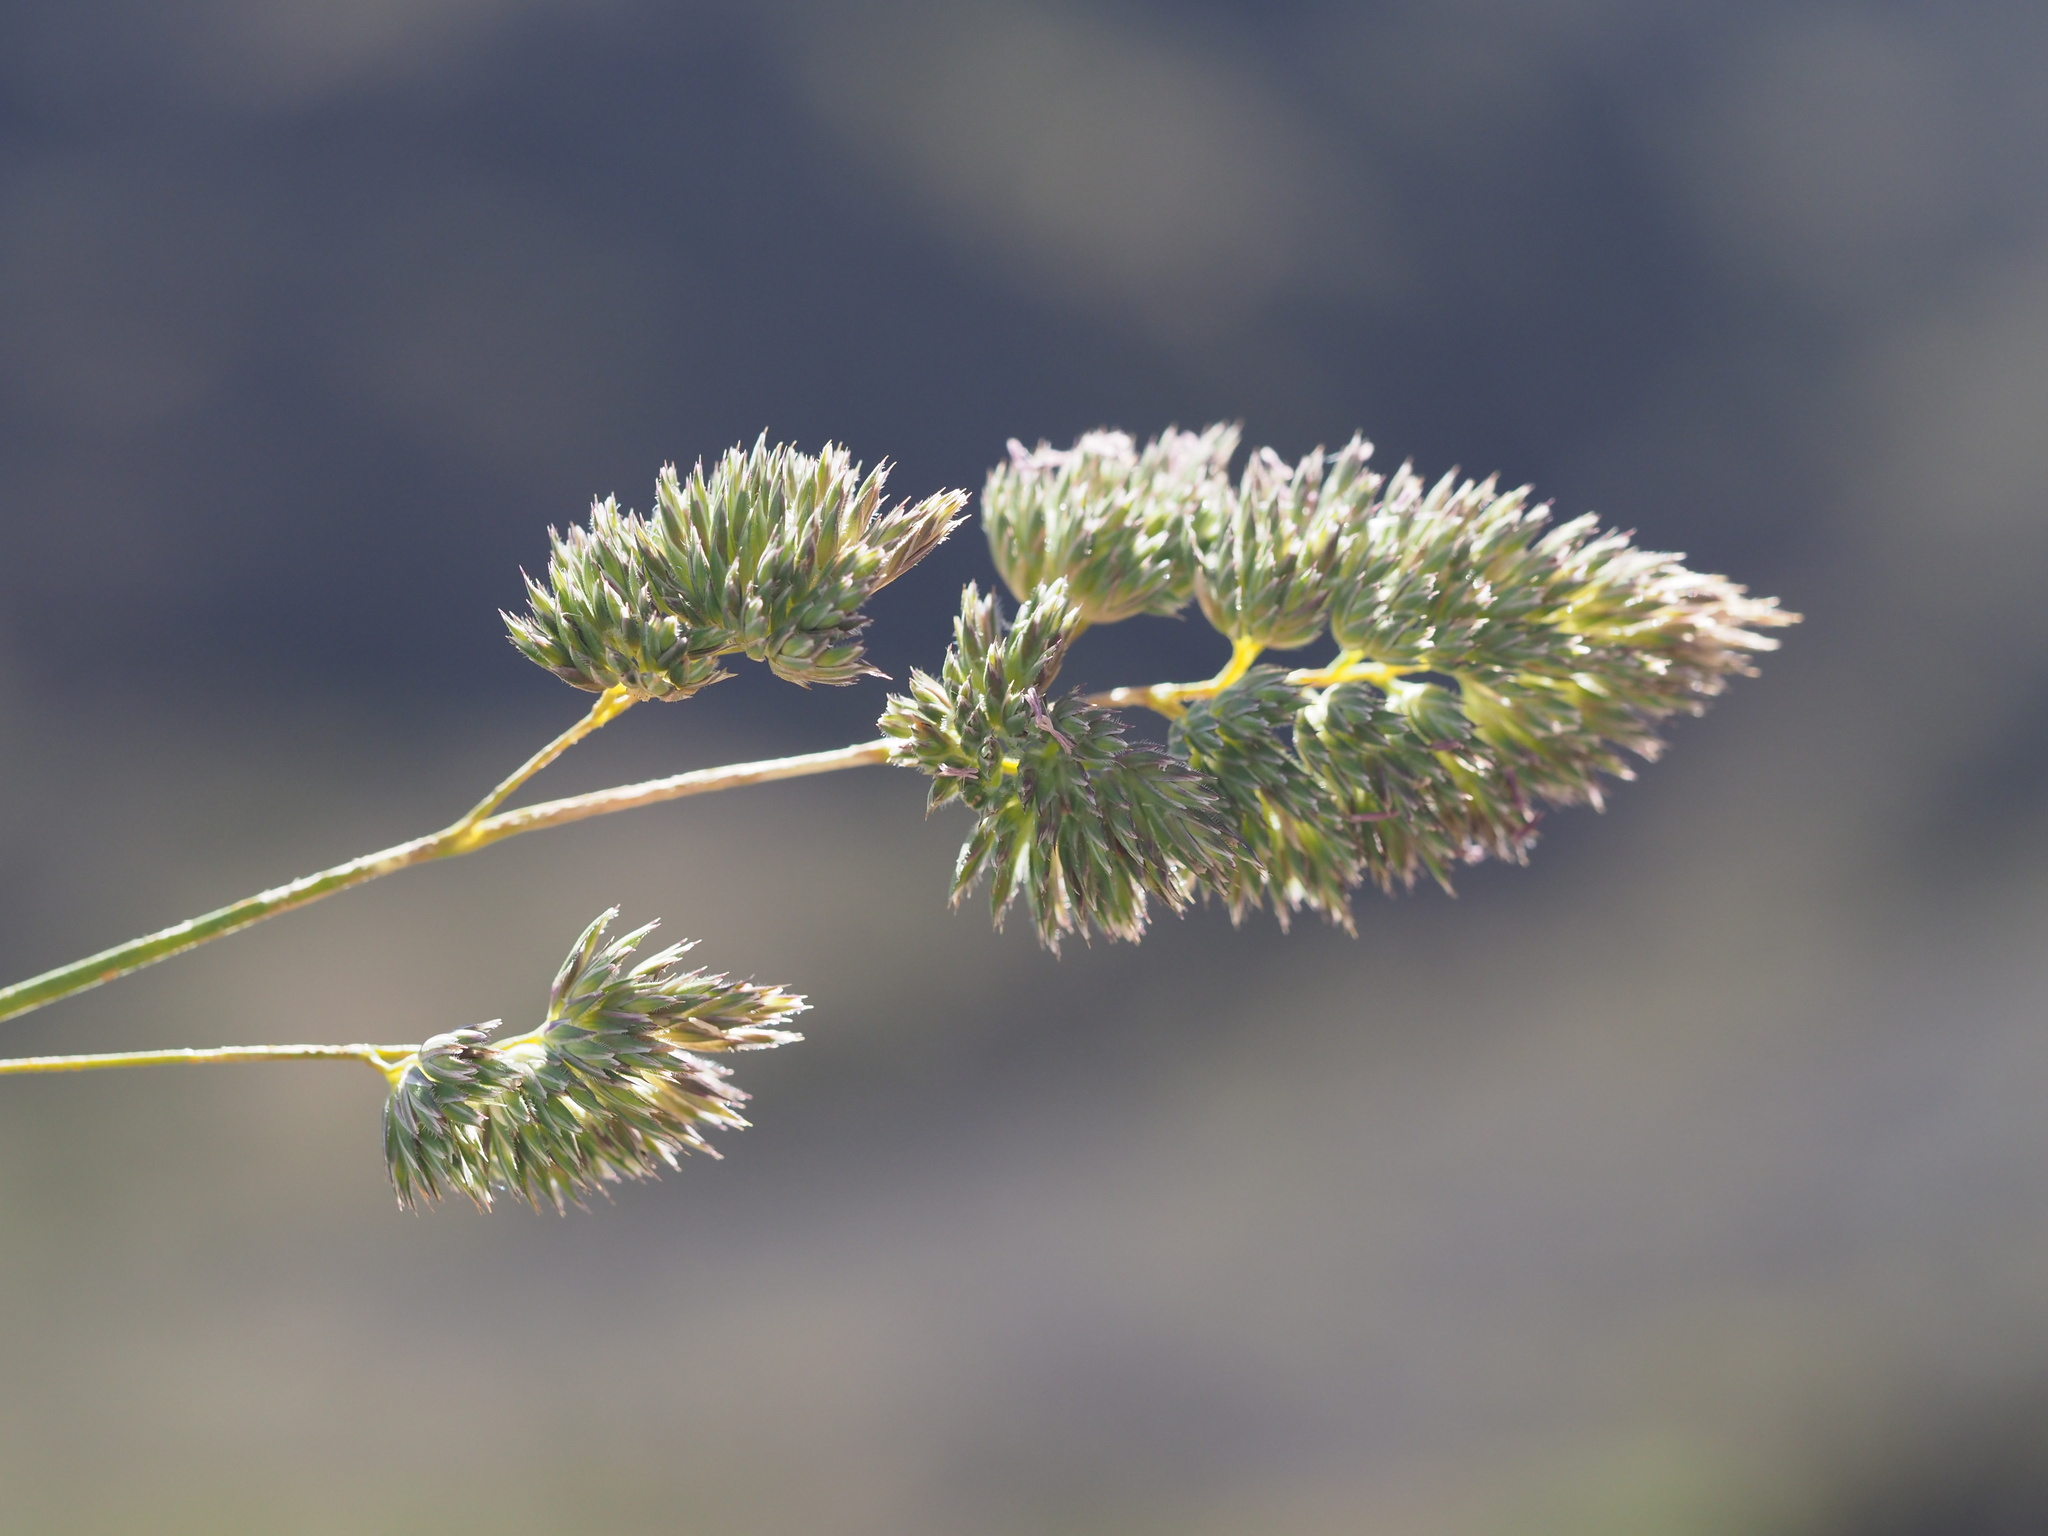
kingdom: Plantae
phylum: Tracheophyta
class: Liliopsida
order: Poales
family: Poaceae
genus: Dactylis
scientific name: Dactylis glomerata
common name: Orchardgrass
